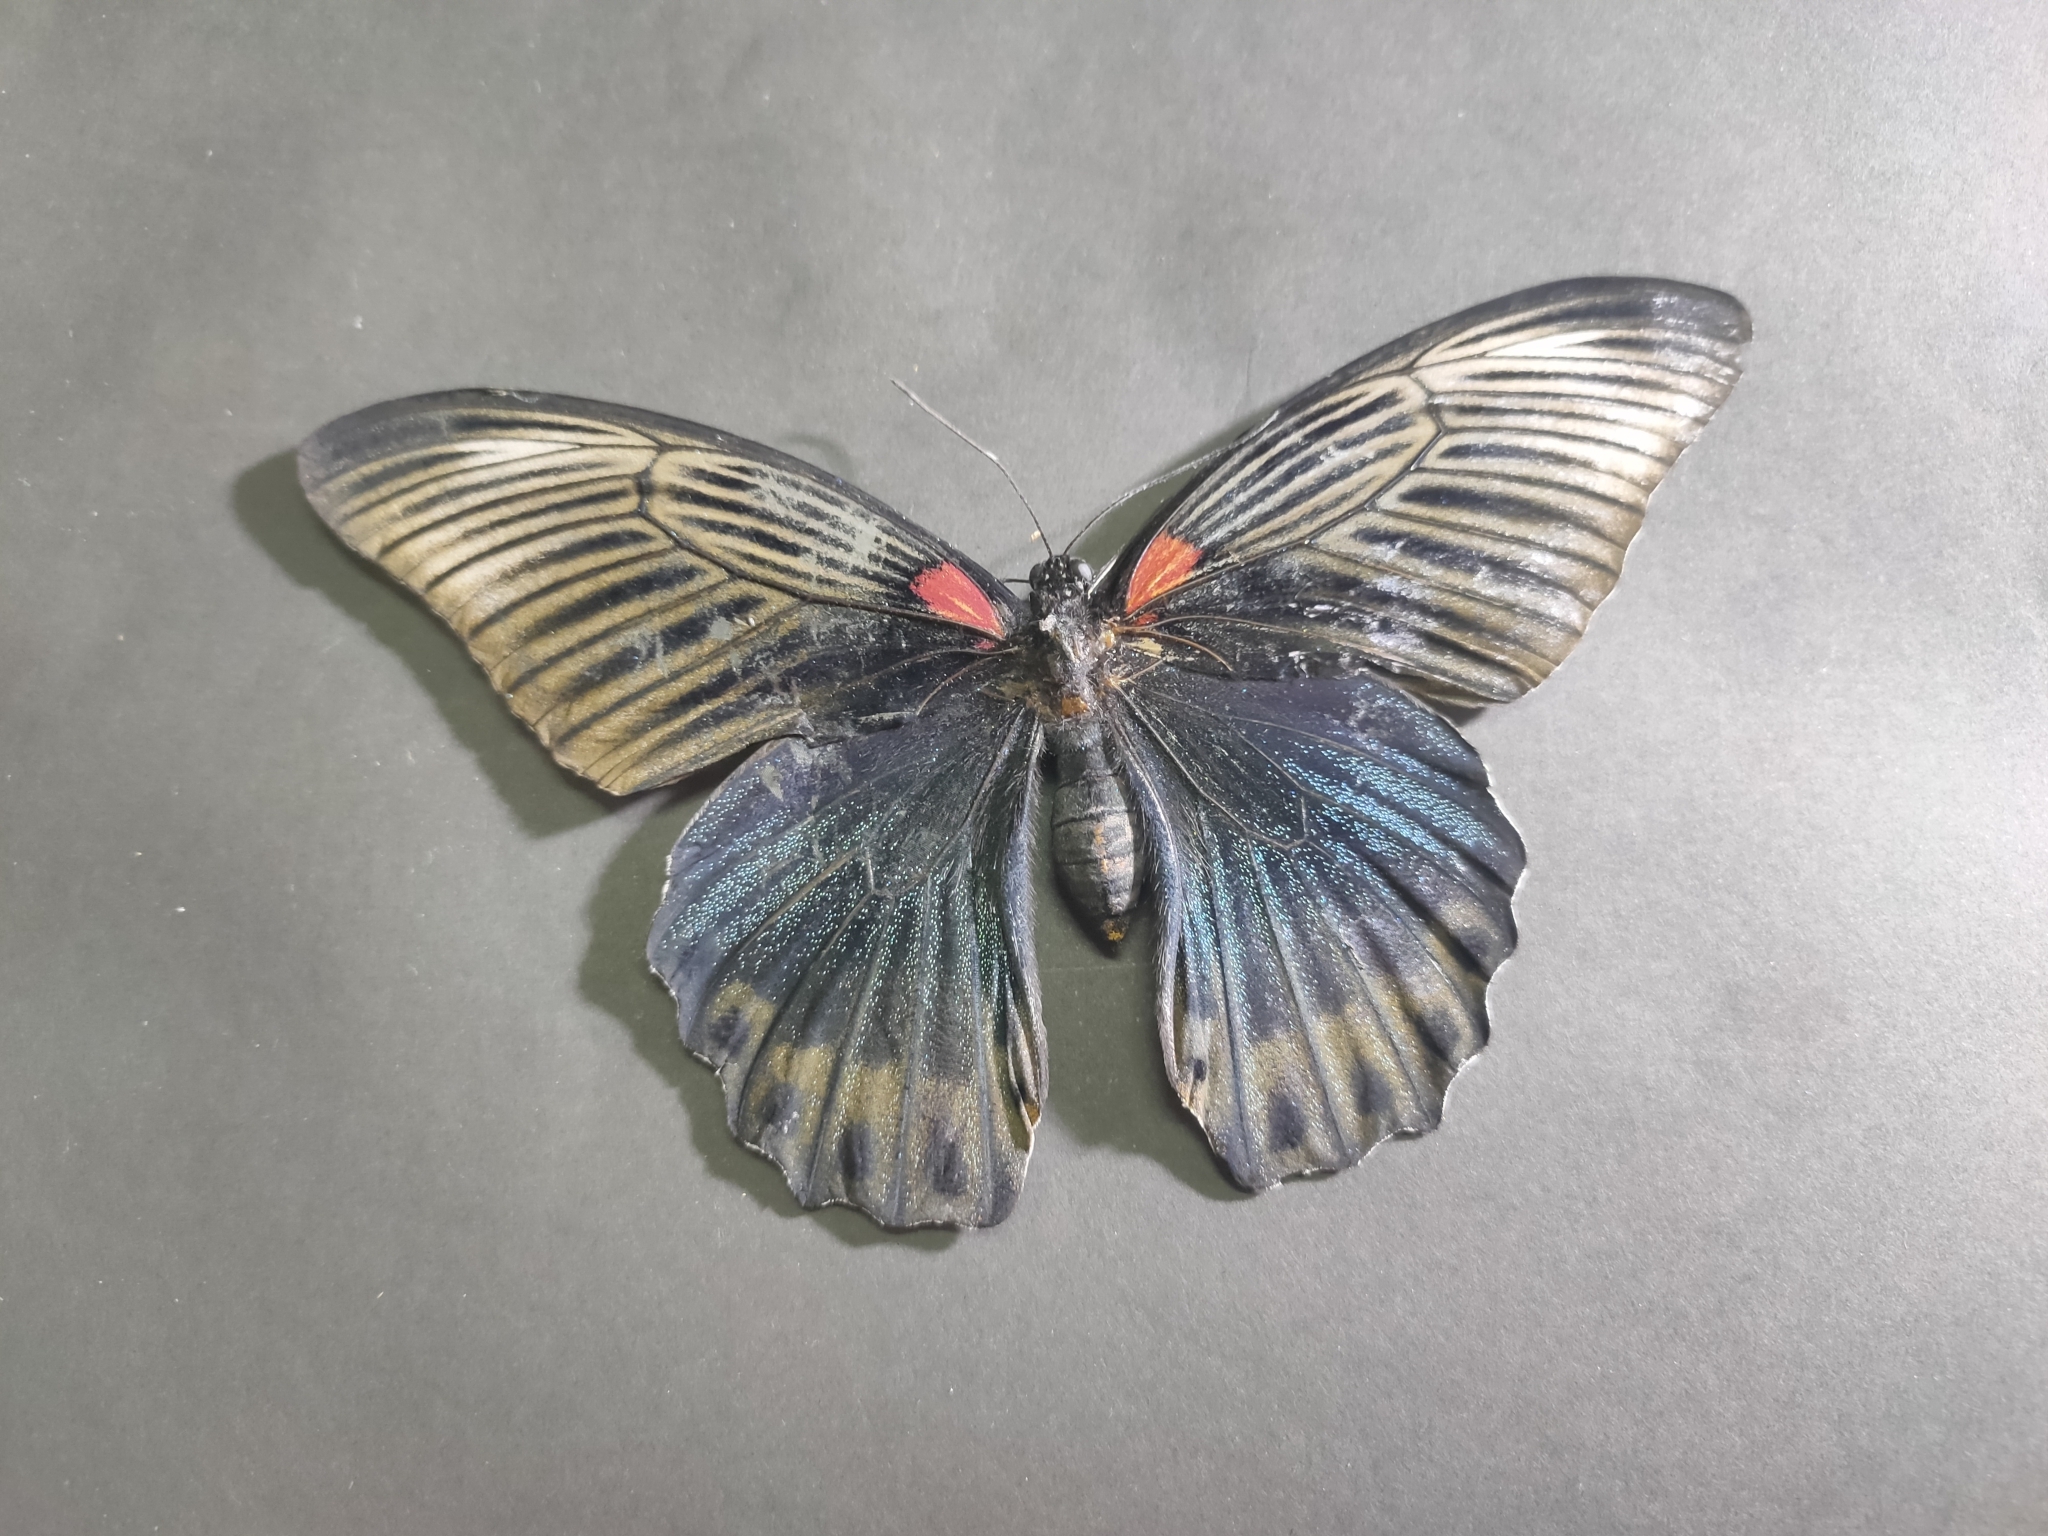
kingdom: Animalia
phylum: Arthropoda
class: Insecta
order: Lepidoptera
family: Papilionidae
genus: Papilio
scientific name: Papilio memnon
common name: Great mormon
